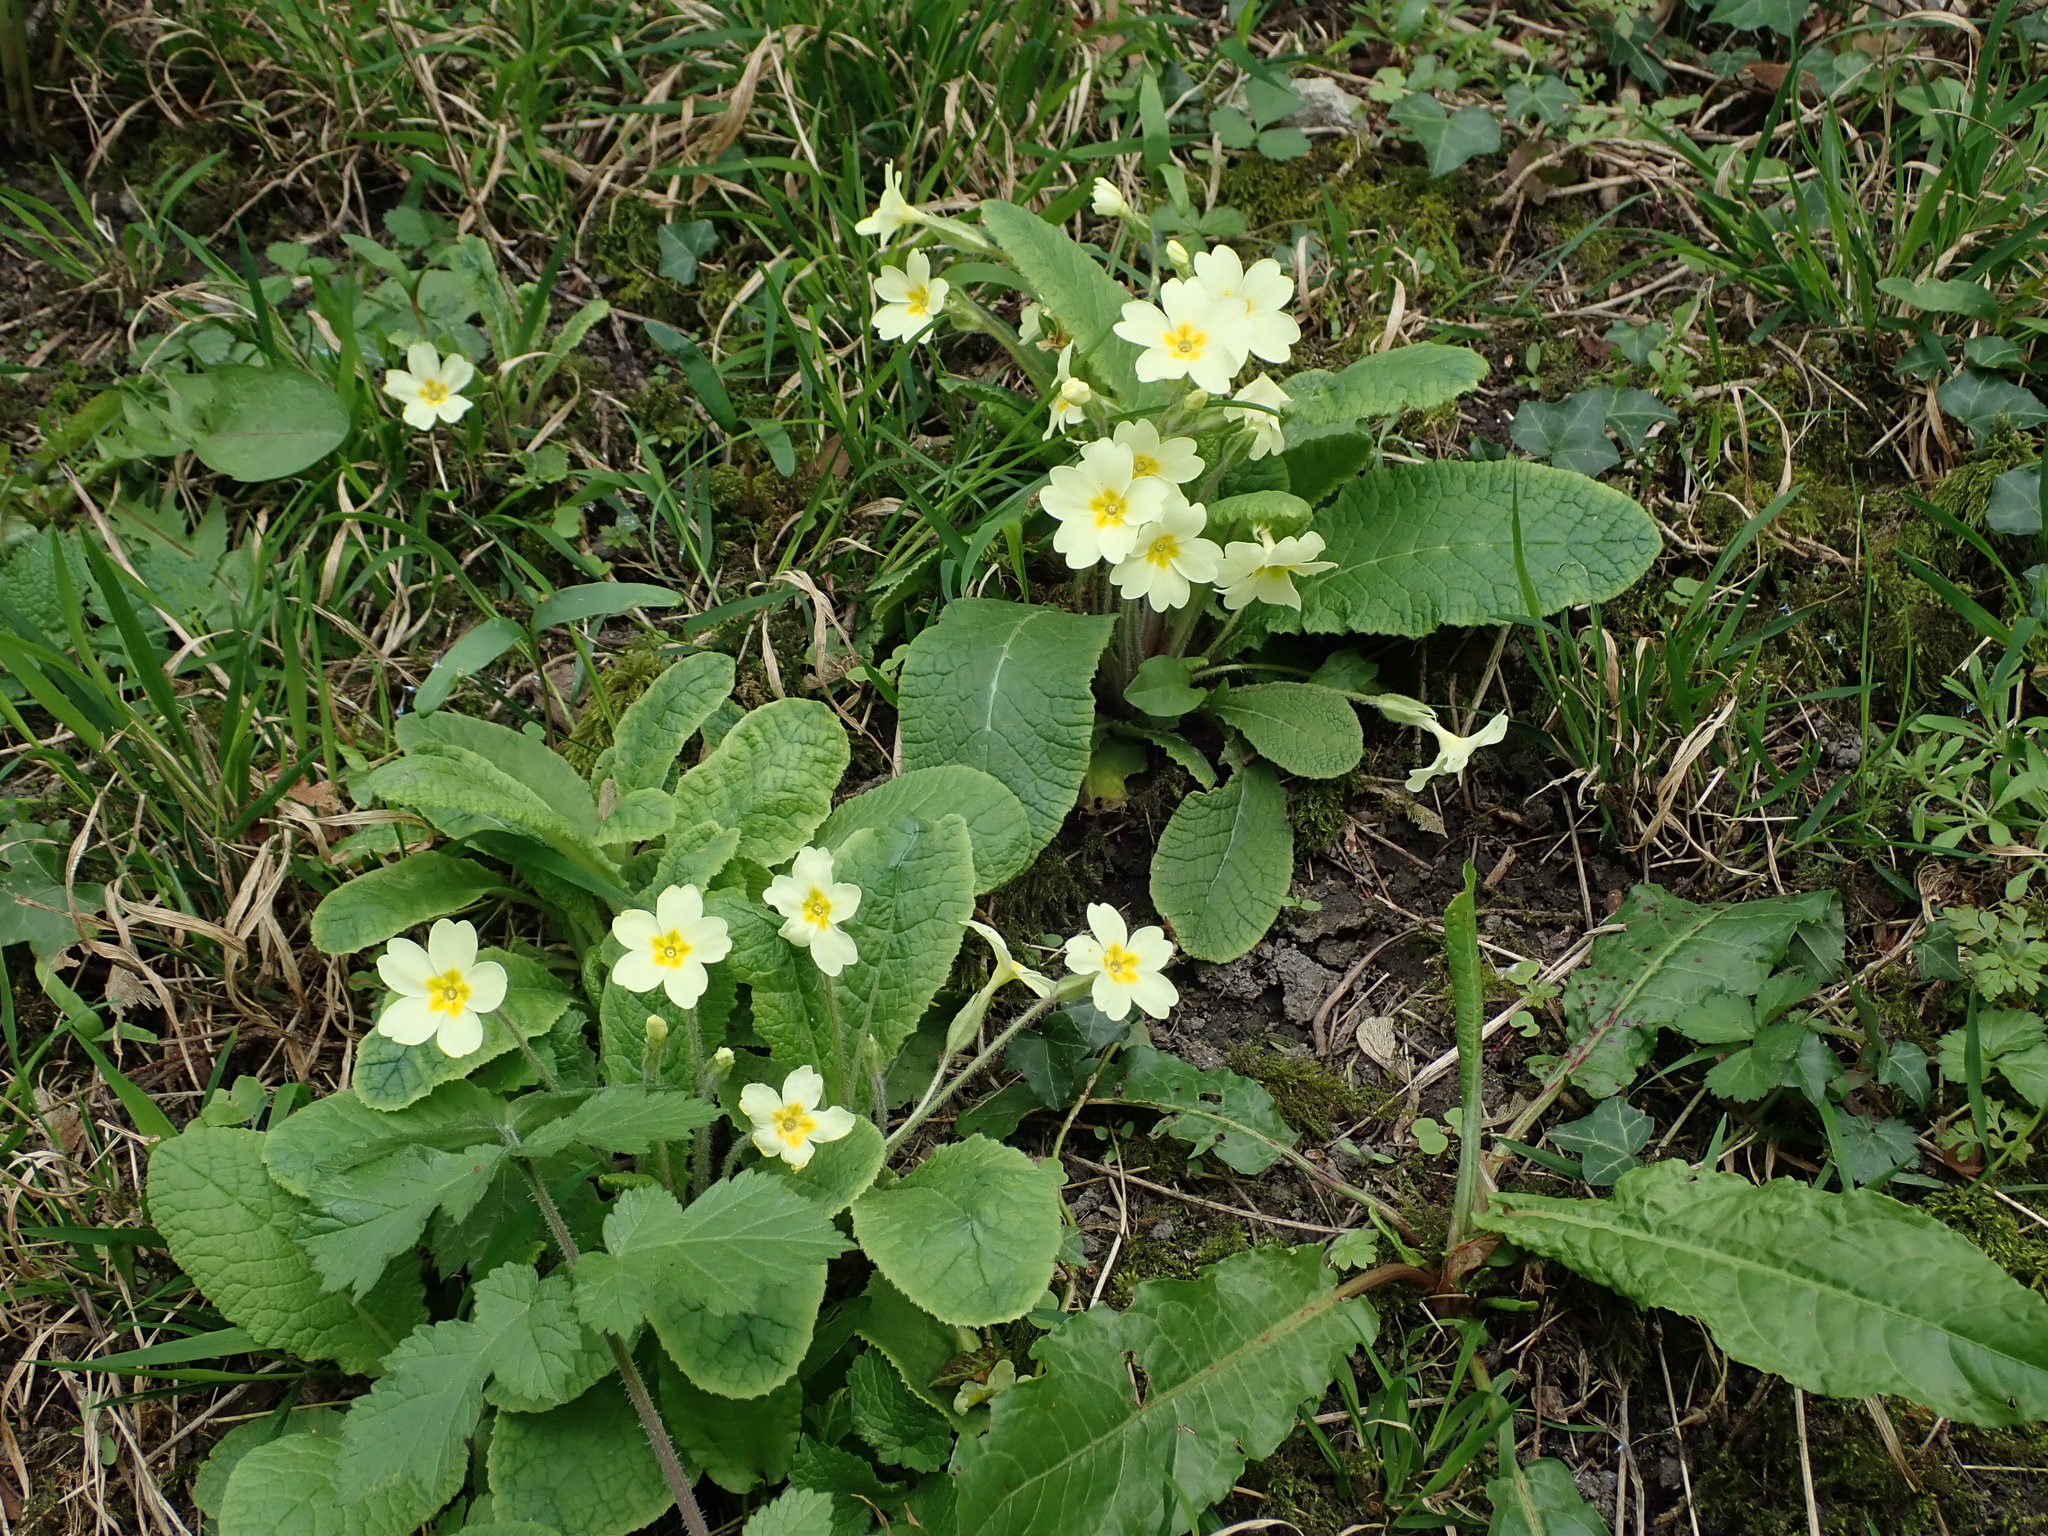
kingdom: Plantae
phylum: Tracheophyta
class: Magnoliopsida
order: Ericales
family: Primulaceae
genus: Primula
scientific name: Primula vulgaris
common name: Primrose
